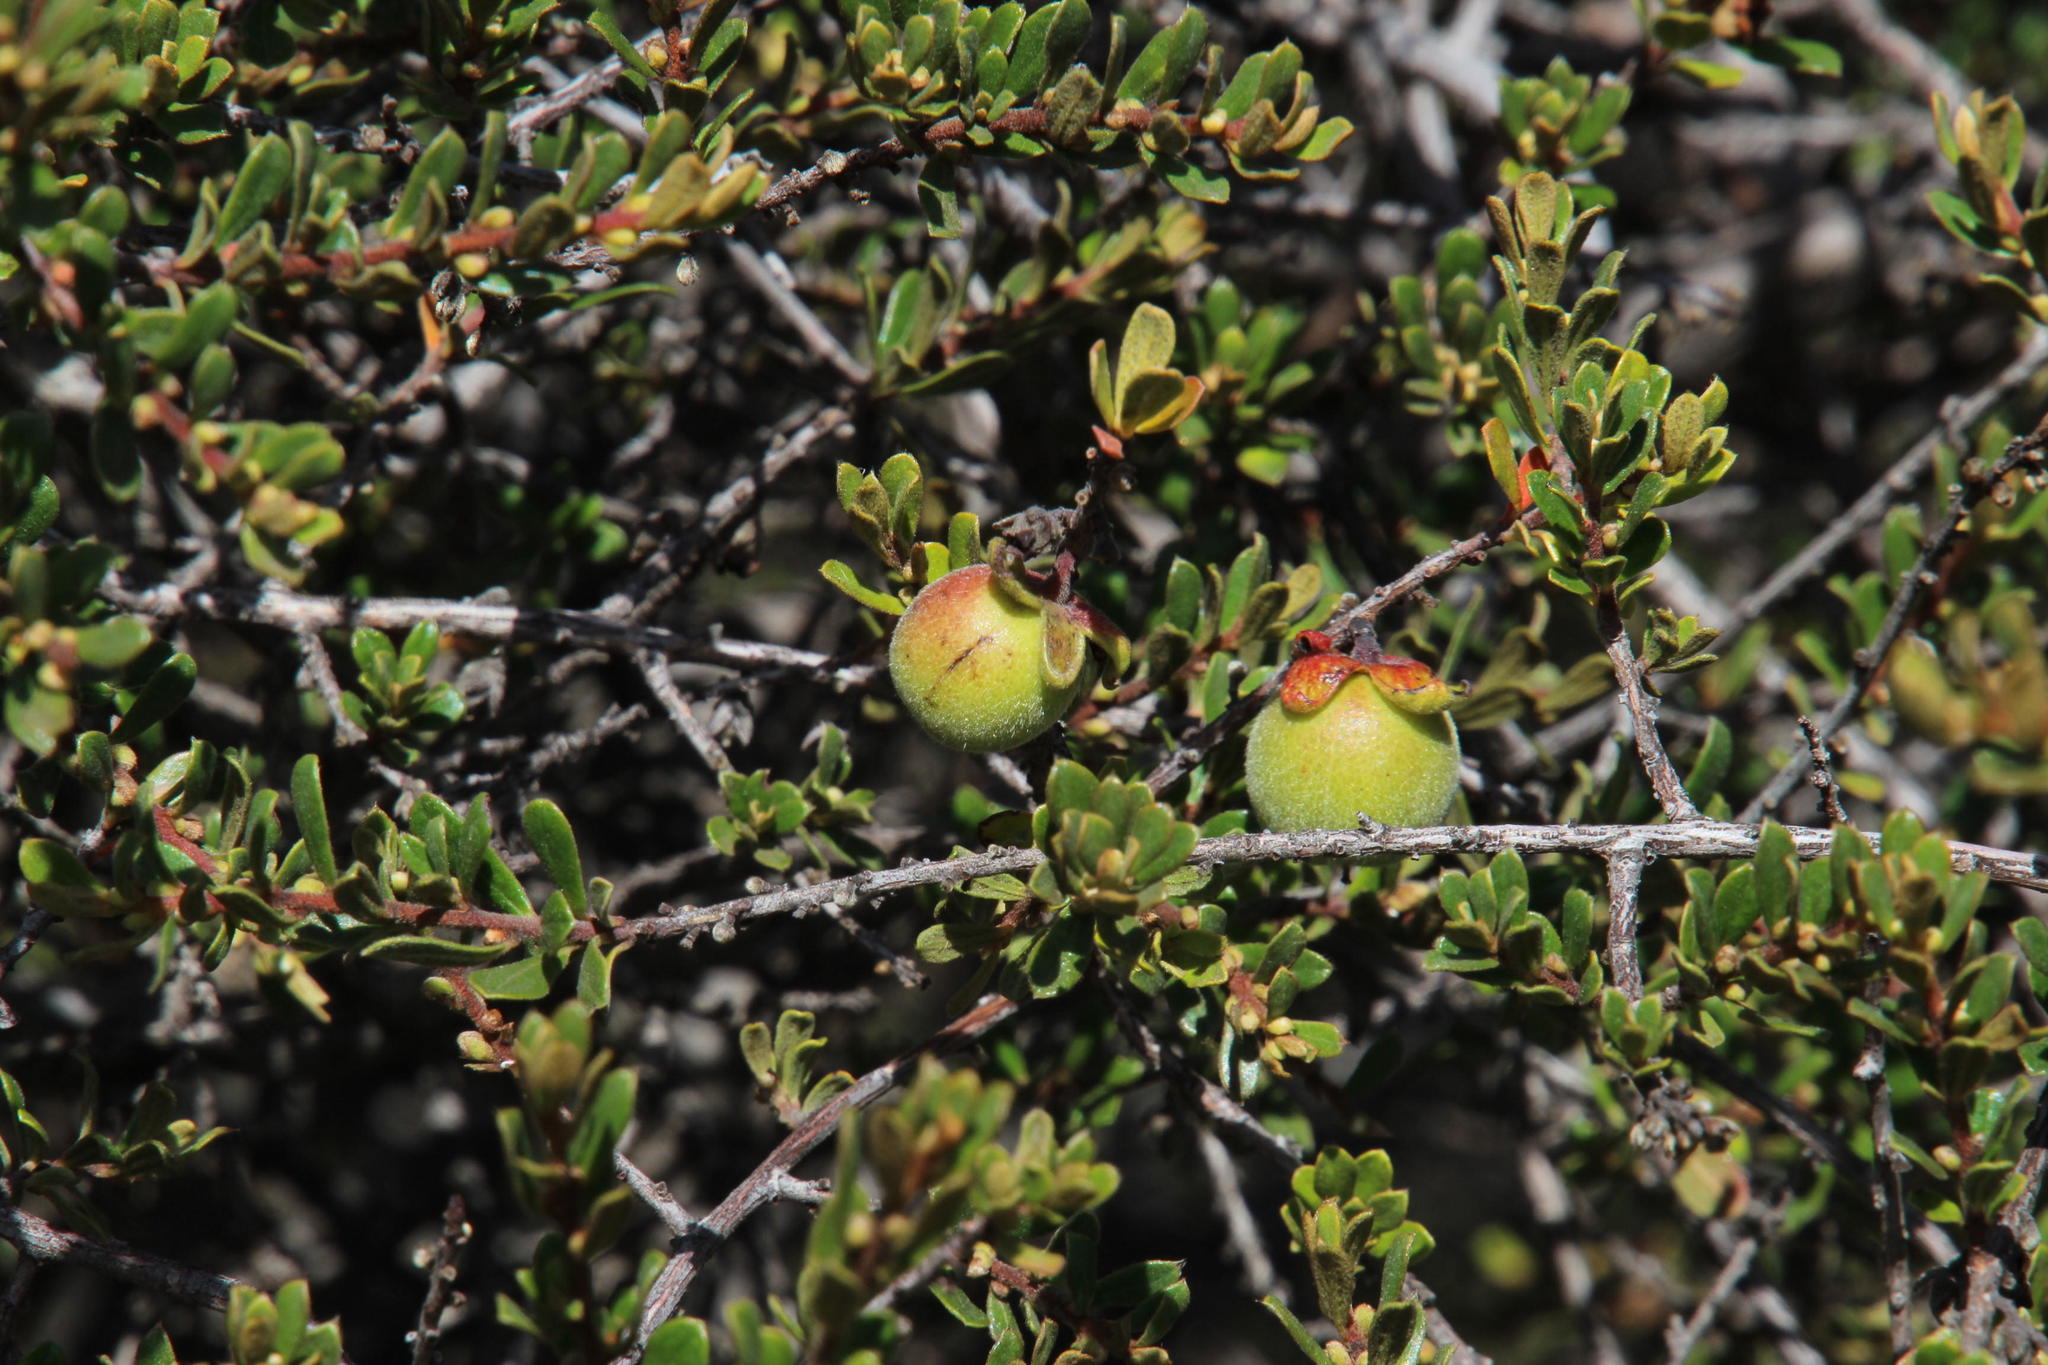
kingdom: Plantae
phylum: Tracheophyta
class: Magnoliopsida
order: Ericales
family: Ebenaceae
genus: Diospyros
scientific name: Diospyros dichrophylla
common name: Common star-apple
